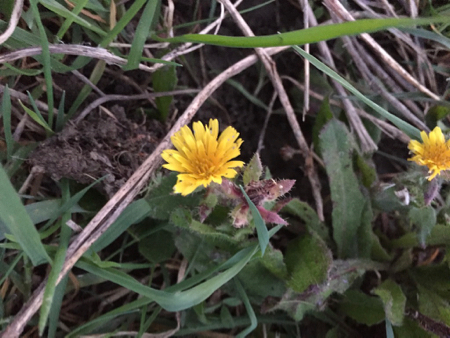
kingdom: Plantae
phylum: Tracheophyta
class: Magnoliopsida
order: Asterales
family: Asteraceae
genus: Helminthotheca
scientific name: Helminthotheca echioides
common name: Ox-tongue
